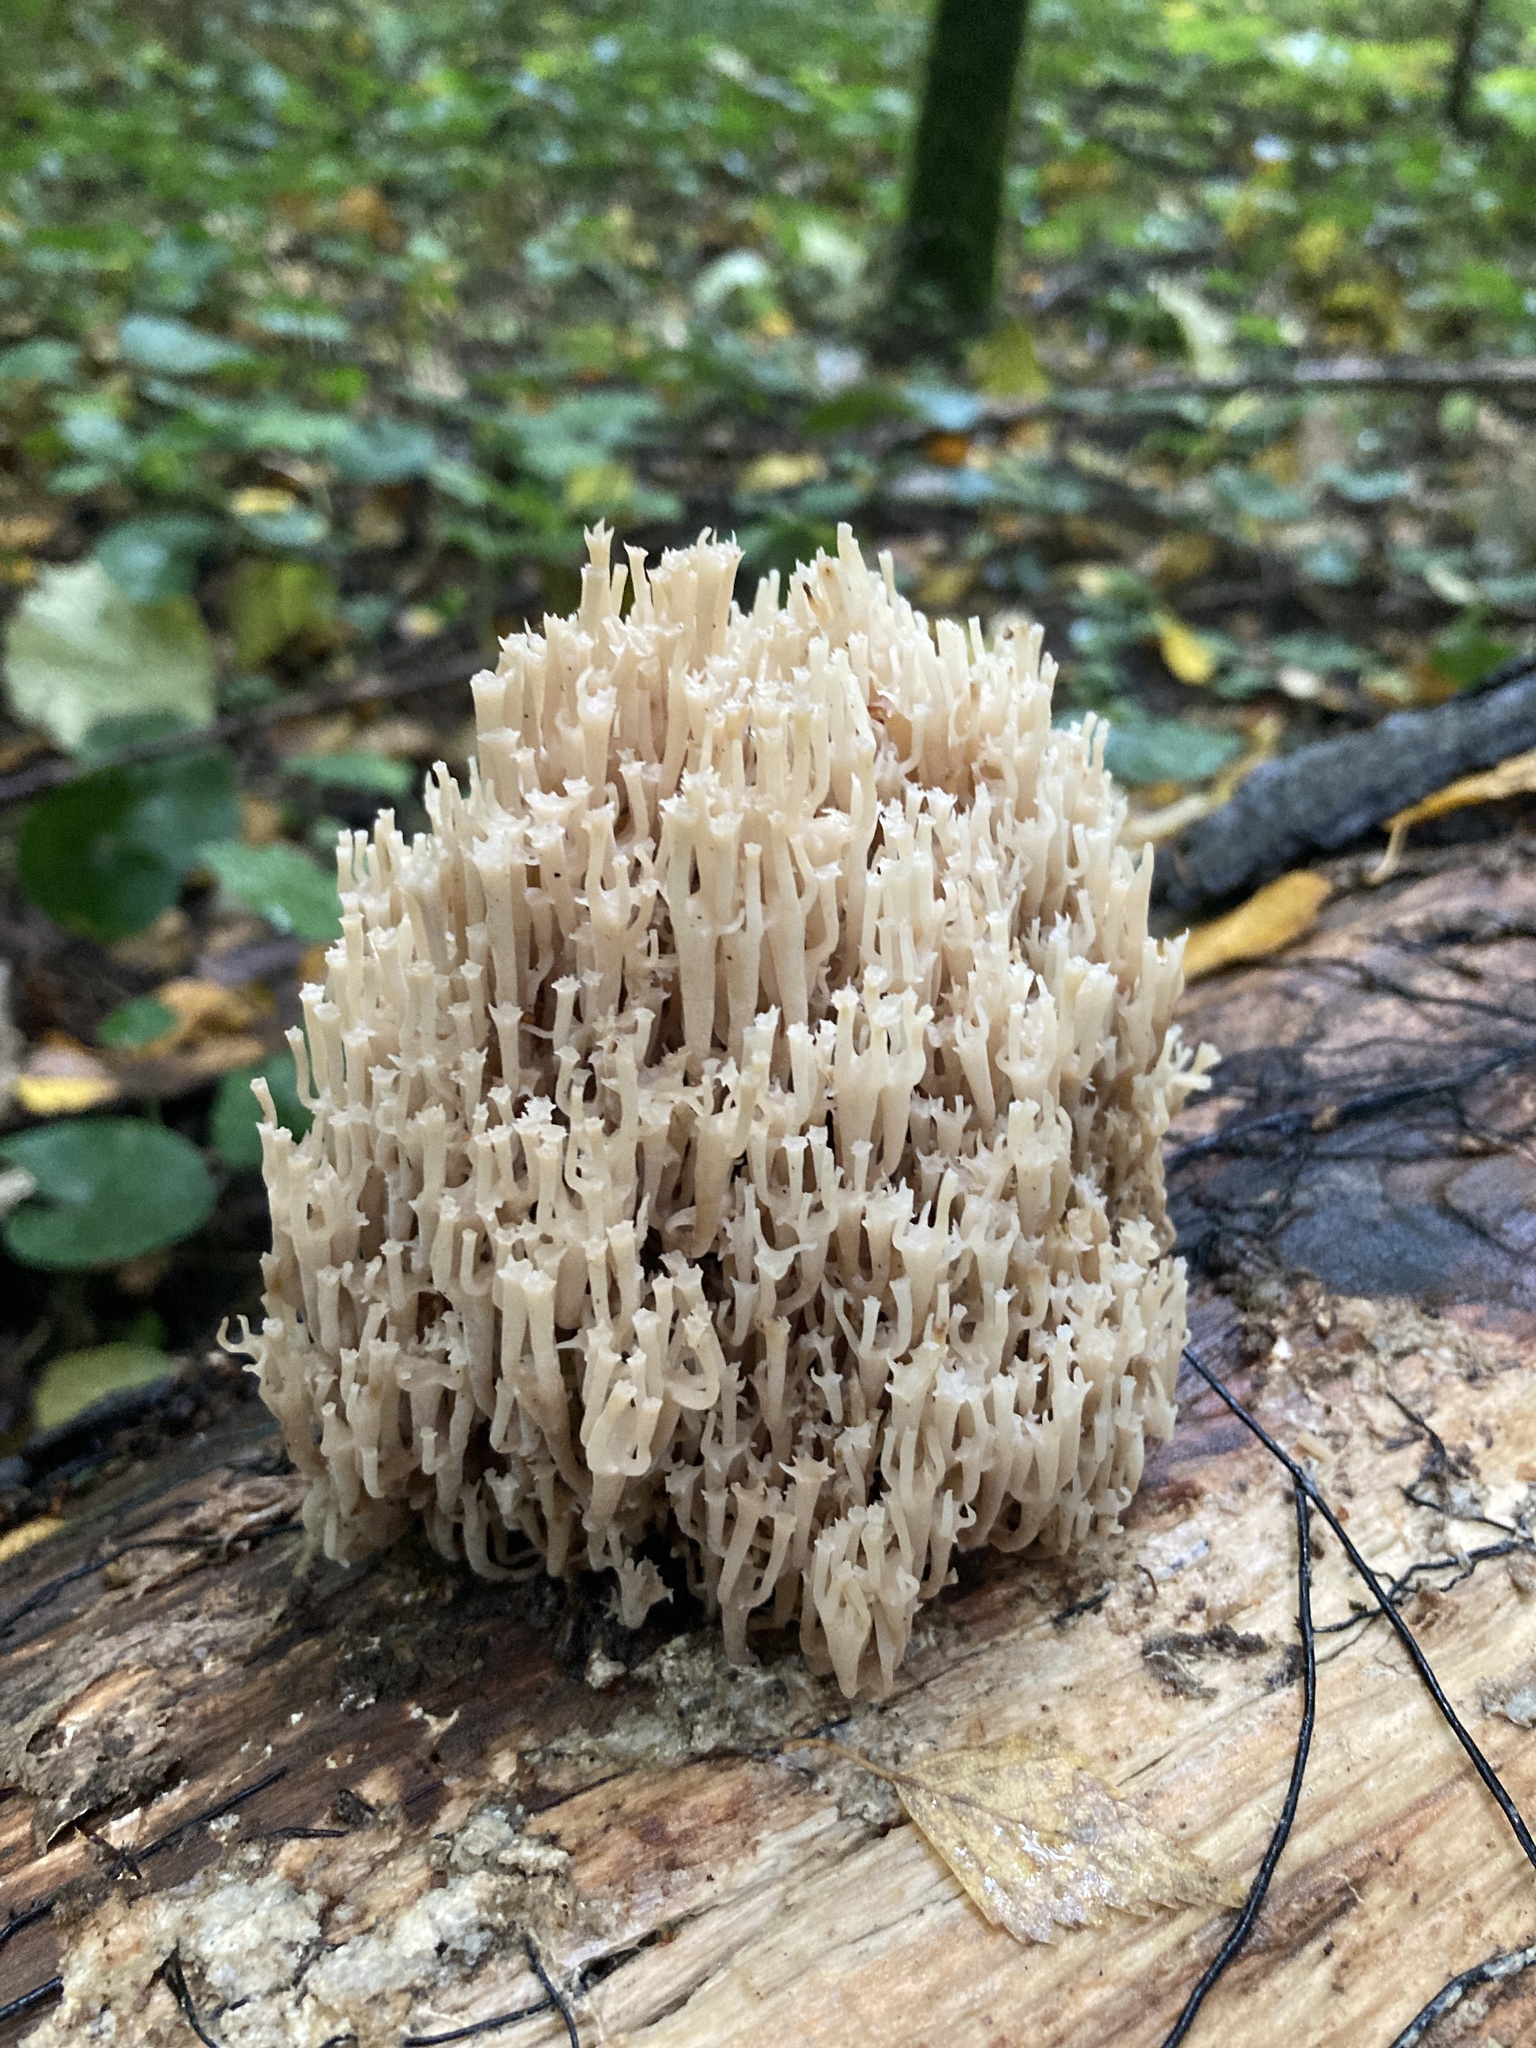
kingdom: Fungi
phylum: Basidiomycota
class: Agaricomycetes
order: Russulales
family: Auriscalpiaceae
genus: Artomyces
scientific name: Artomyces pyxidatus
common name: Crown-tipped coral fungus
